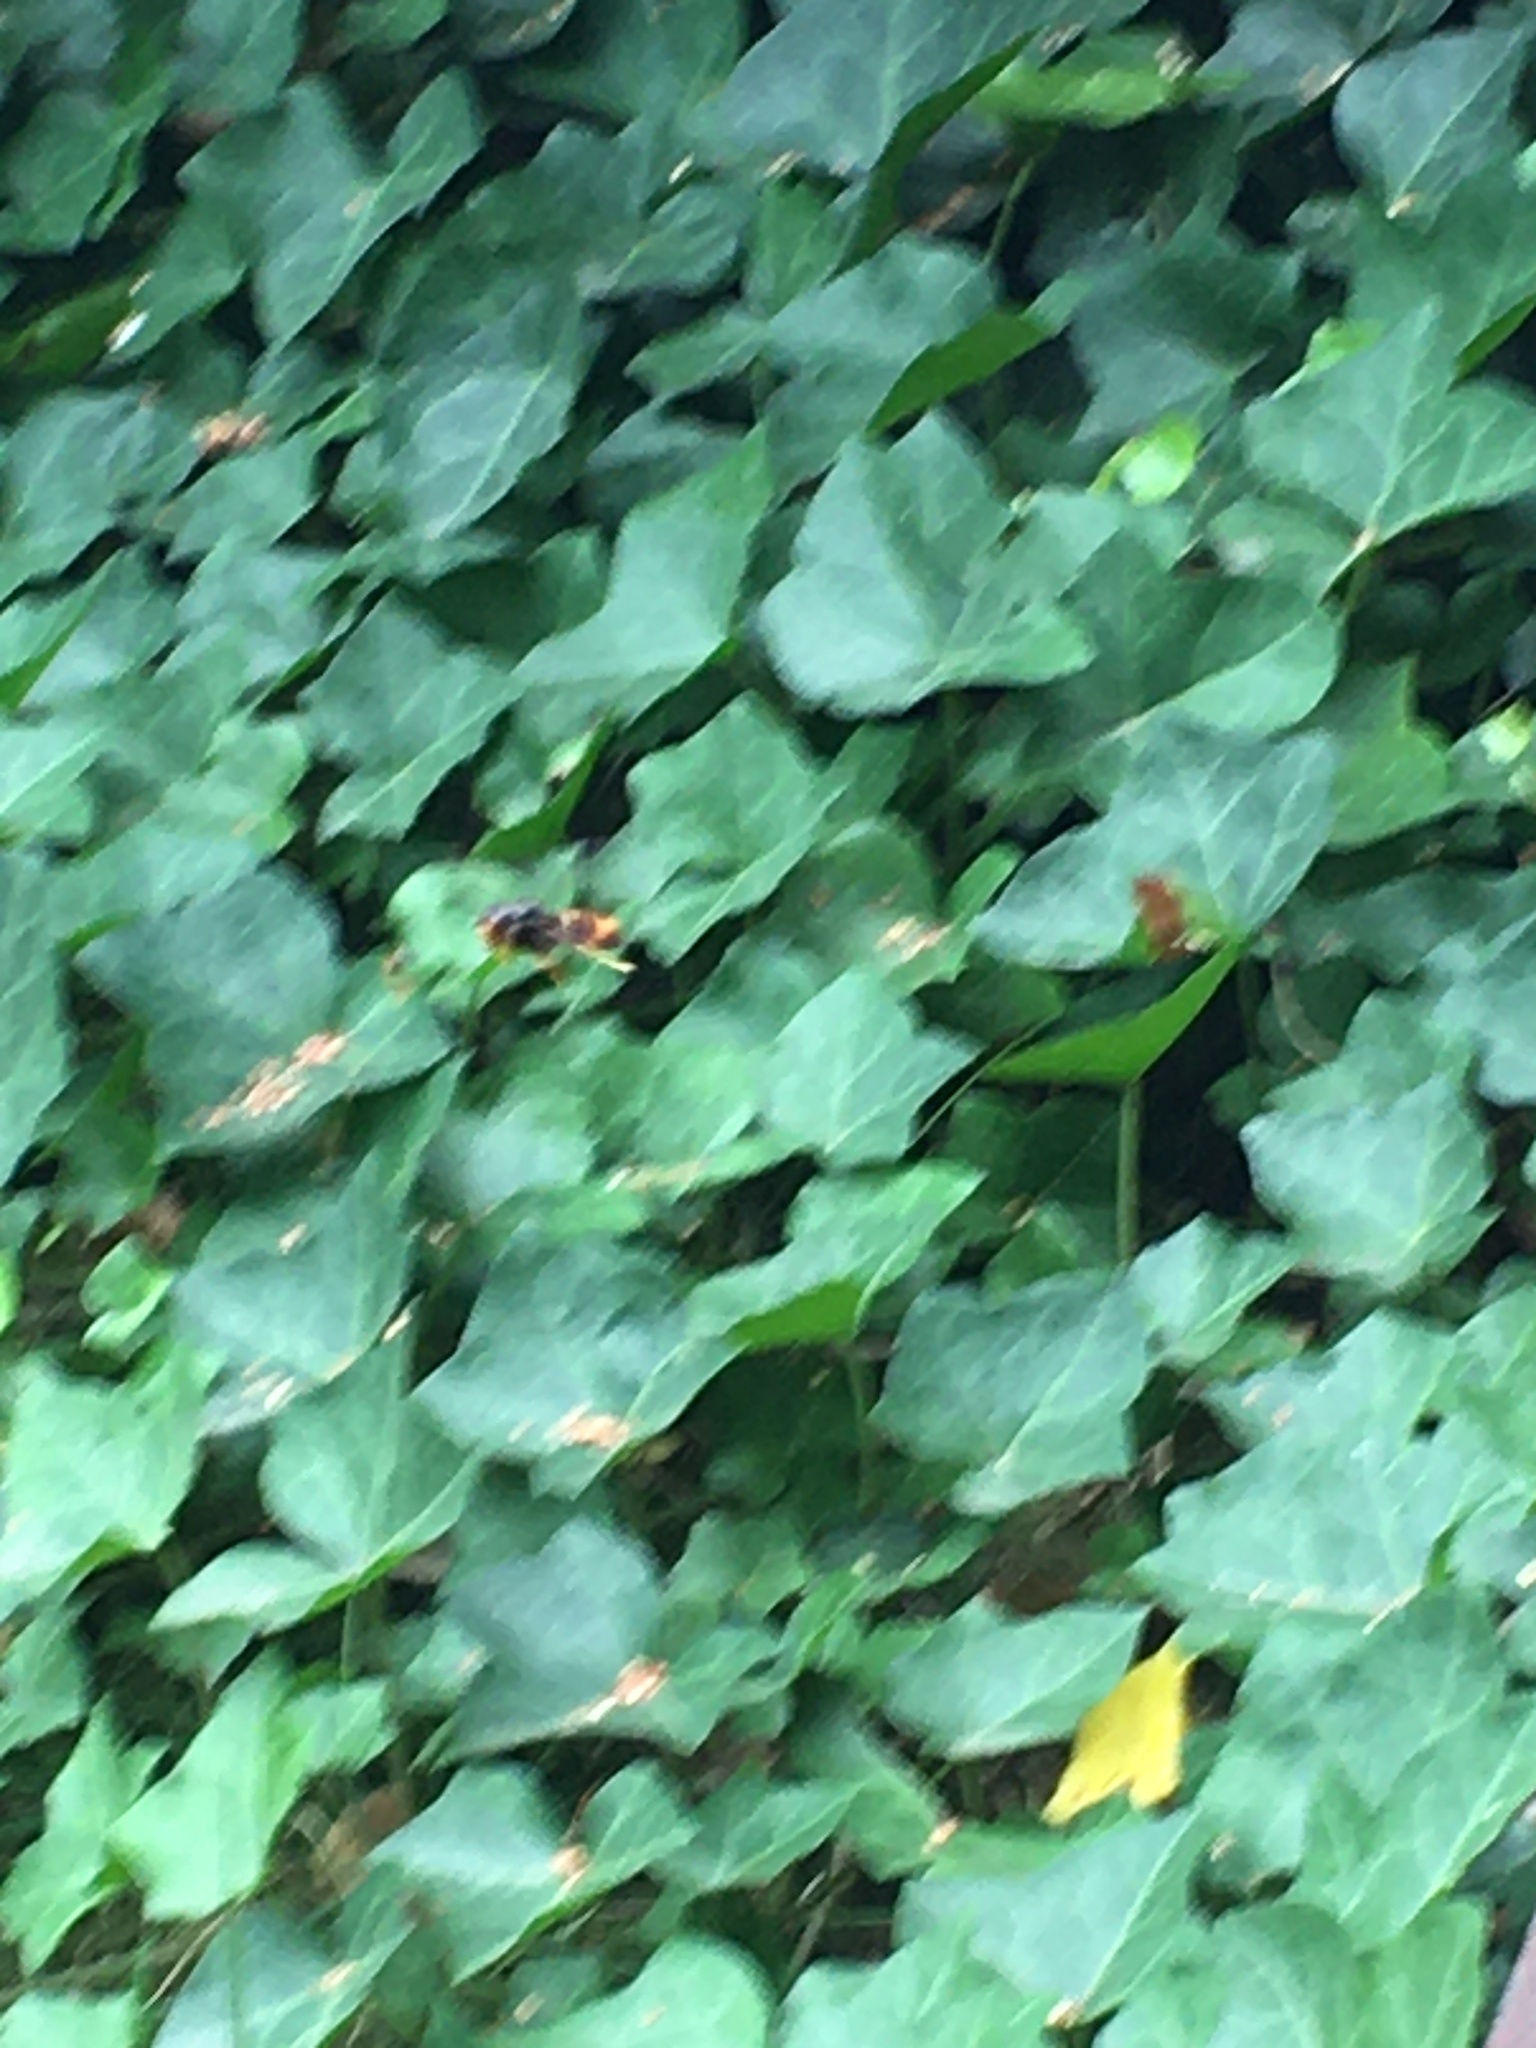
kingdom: Animalia
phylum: Arthropoda
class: Insecta
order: Hymenoptera
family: Vespidae
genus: Vespa
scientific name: Vespa velutina
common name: Asian hornet
